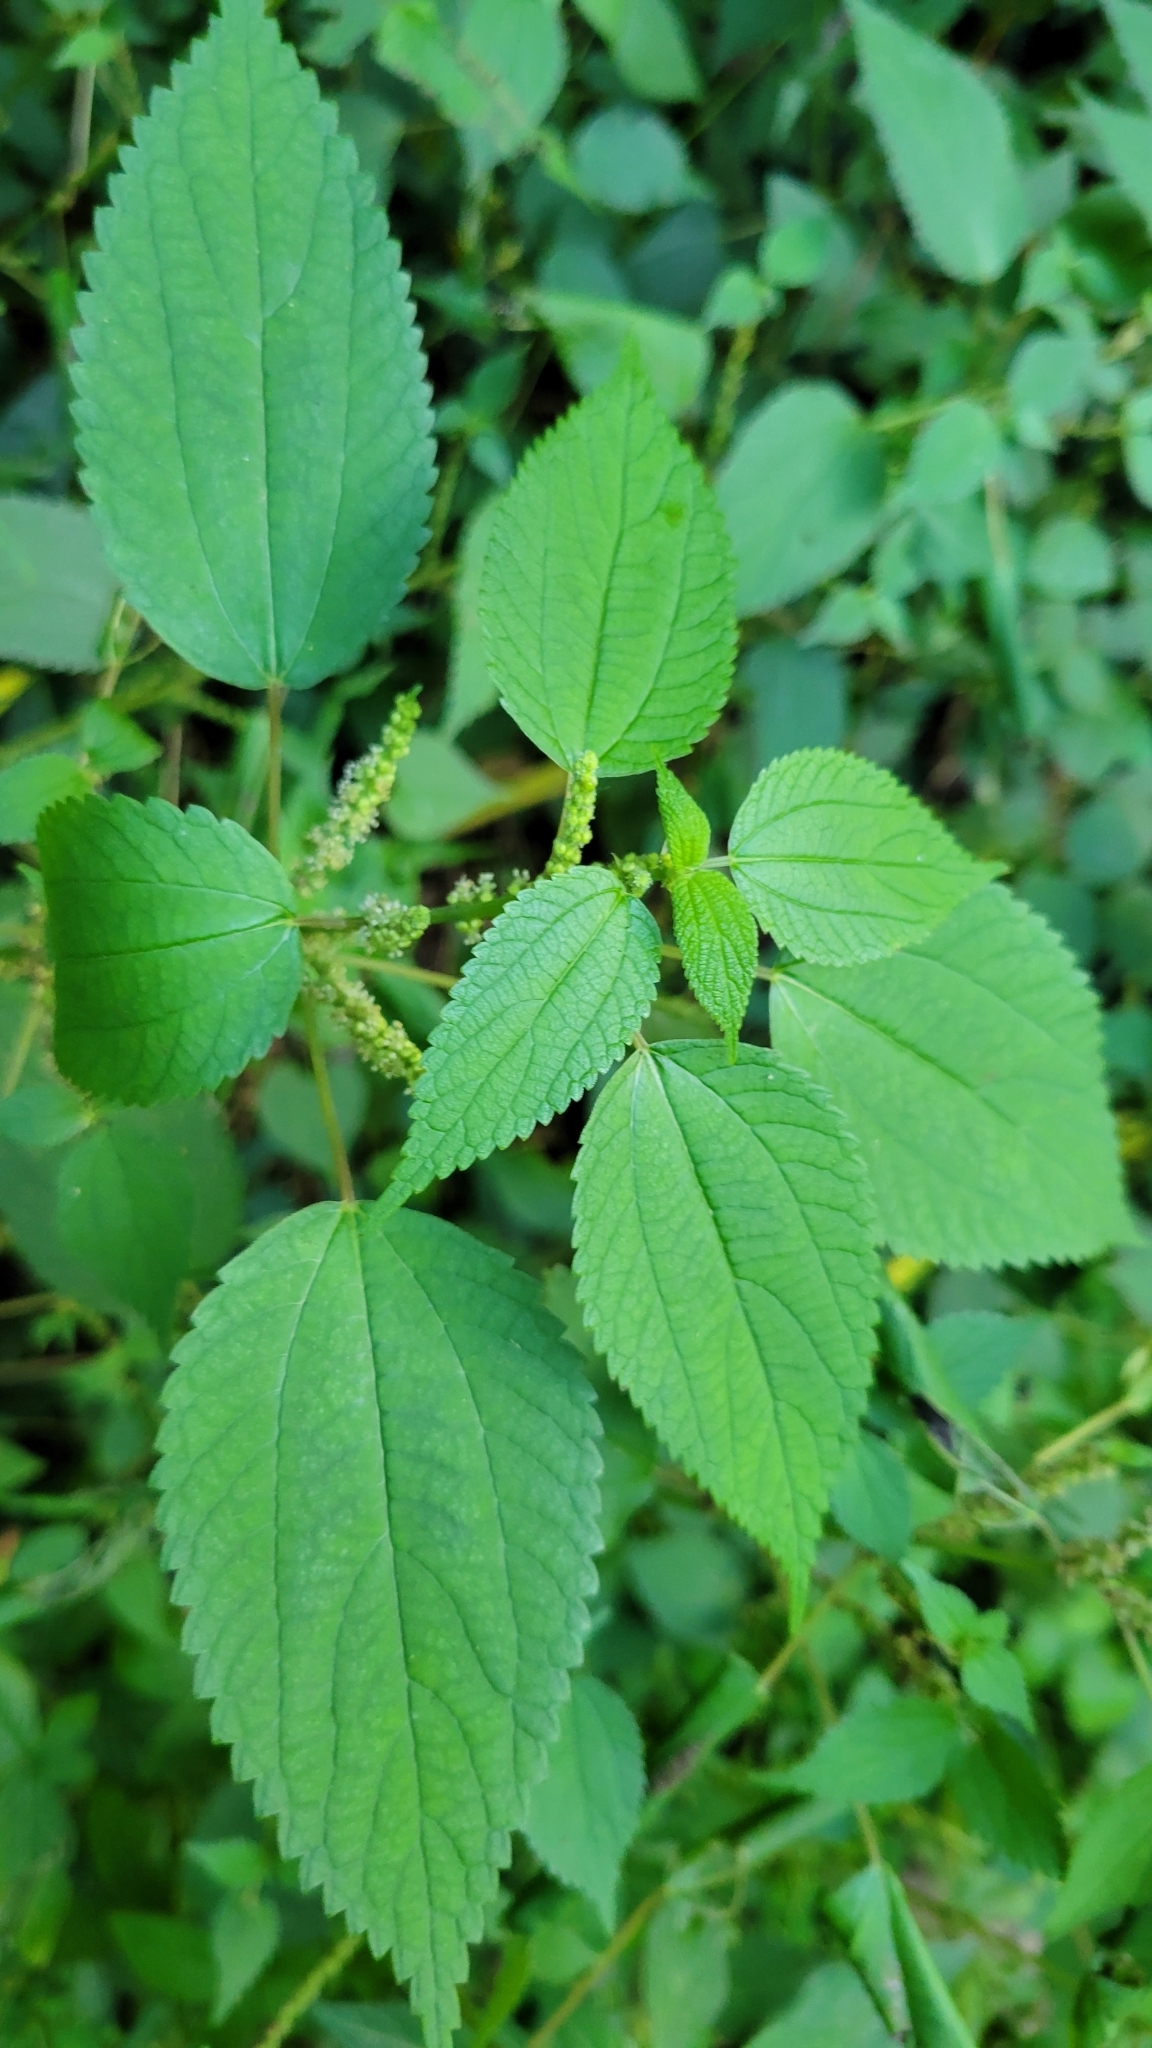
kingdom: Plantae
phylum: Tracheophyta
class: Magnoliopsida
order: Rosales
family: Urticaceae
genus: Boehmeria
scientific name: Boehmeria cylindrica
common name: Bog-hemp
